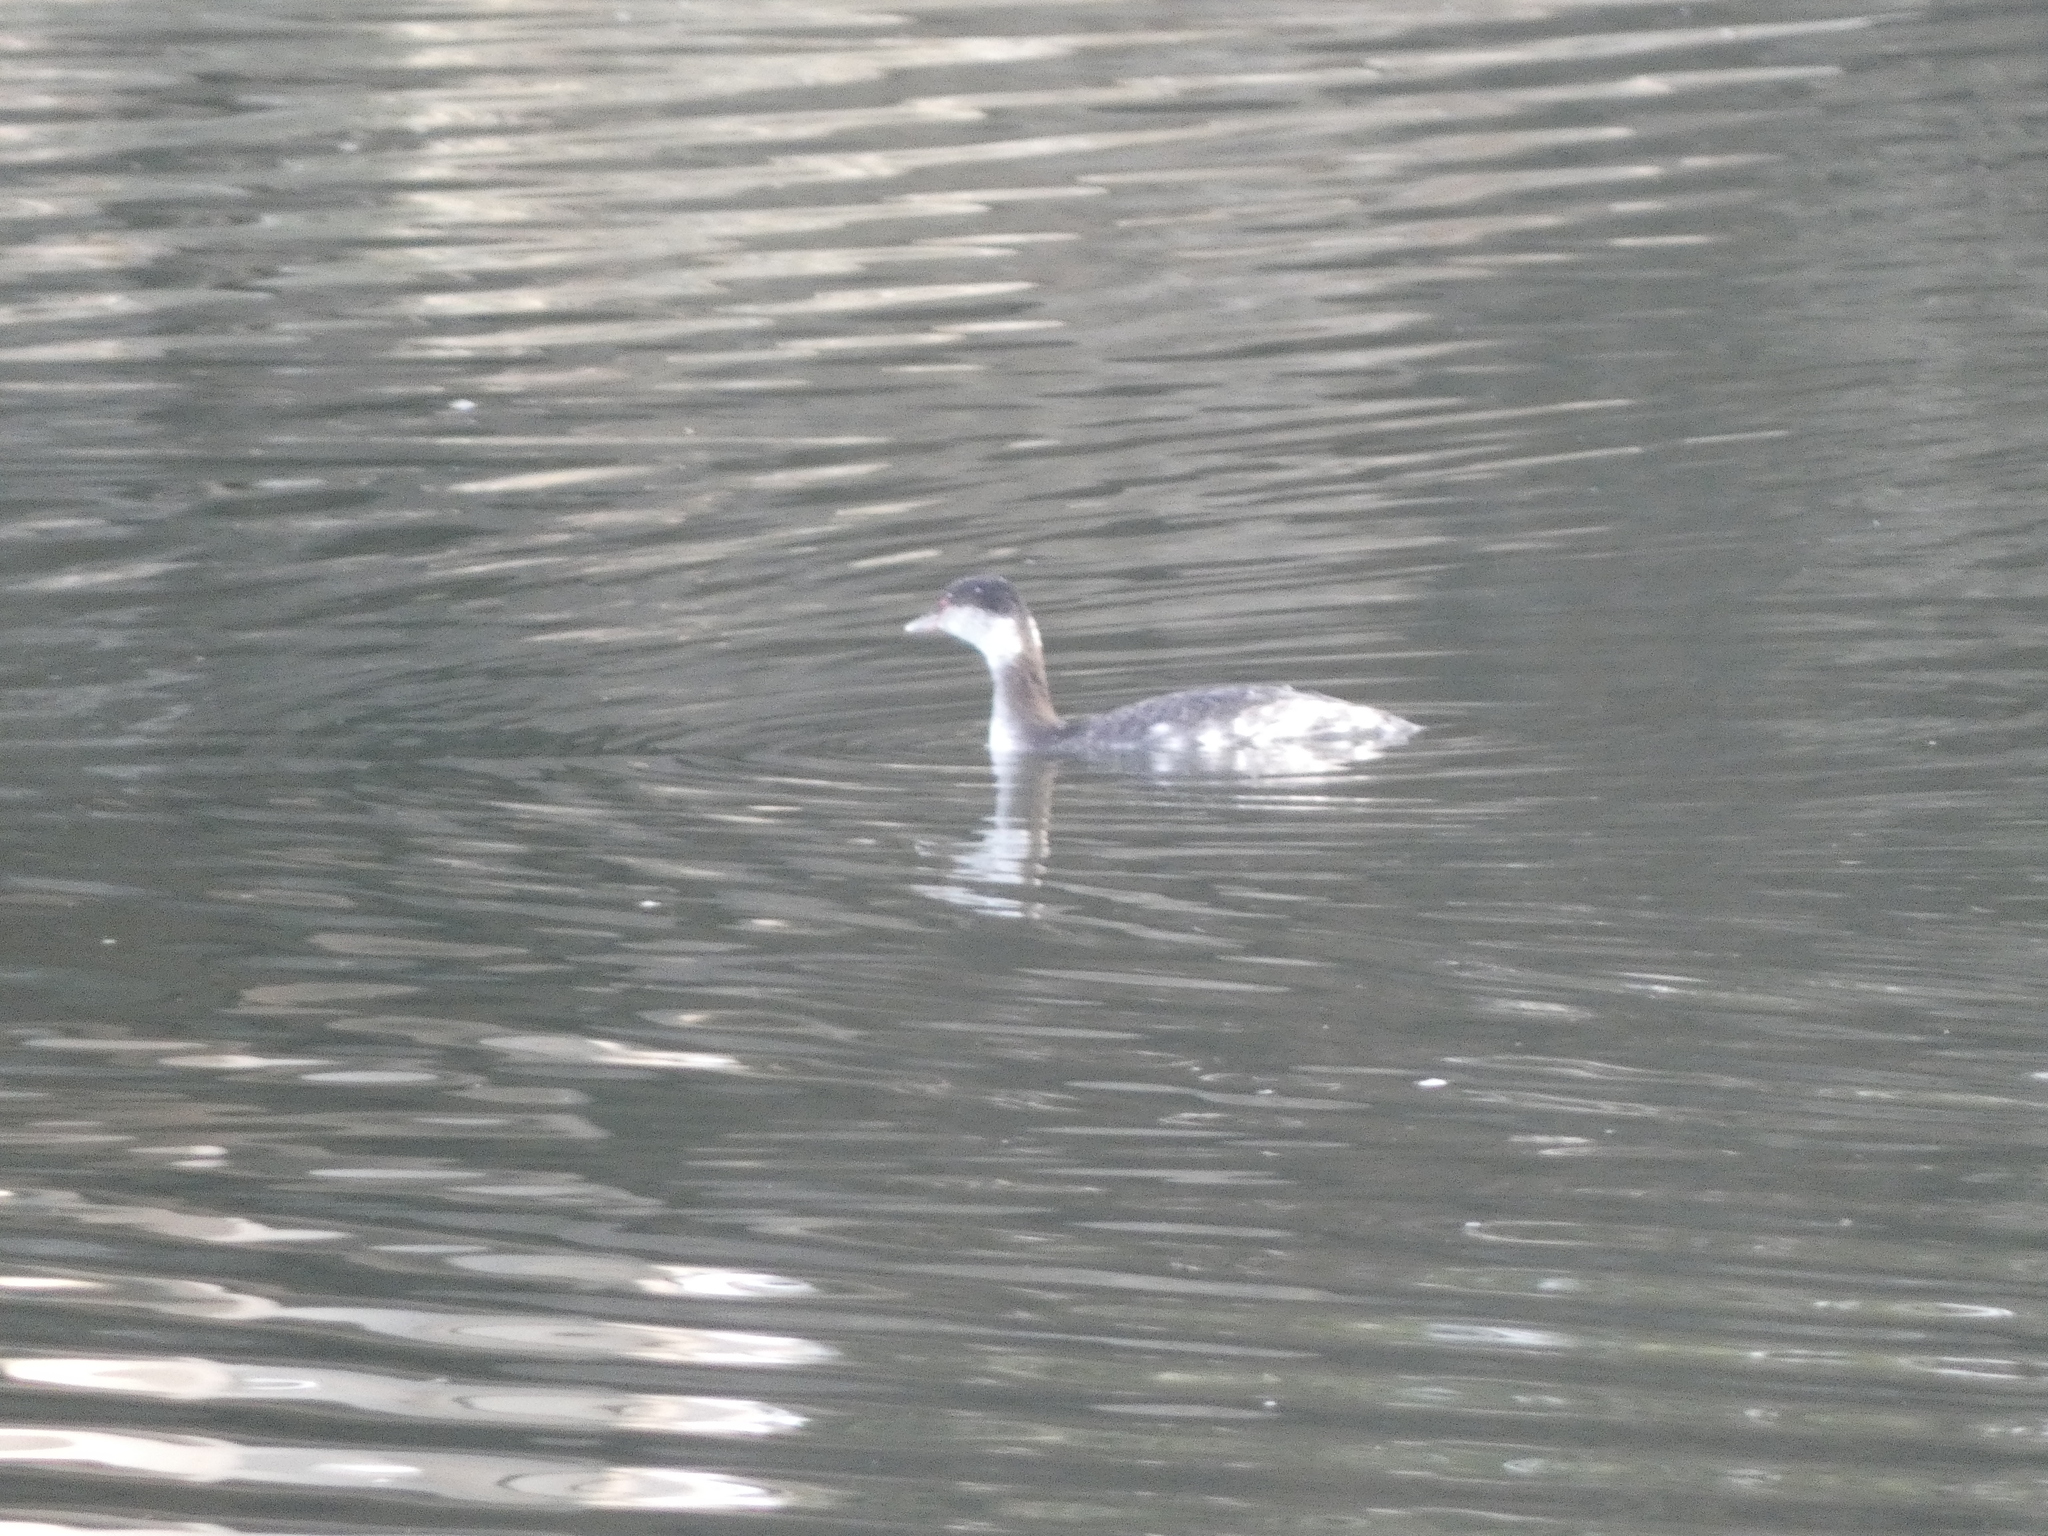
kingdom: Animalia
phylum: Chordata
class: Aves
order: Podicipediformes
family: Podicipedidae
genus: Podiceps
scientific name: Podiceps auritus
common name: Horned grebe
